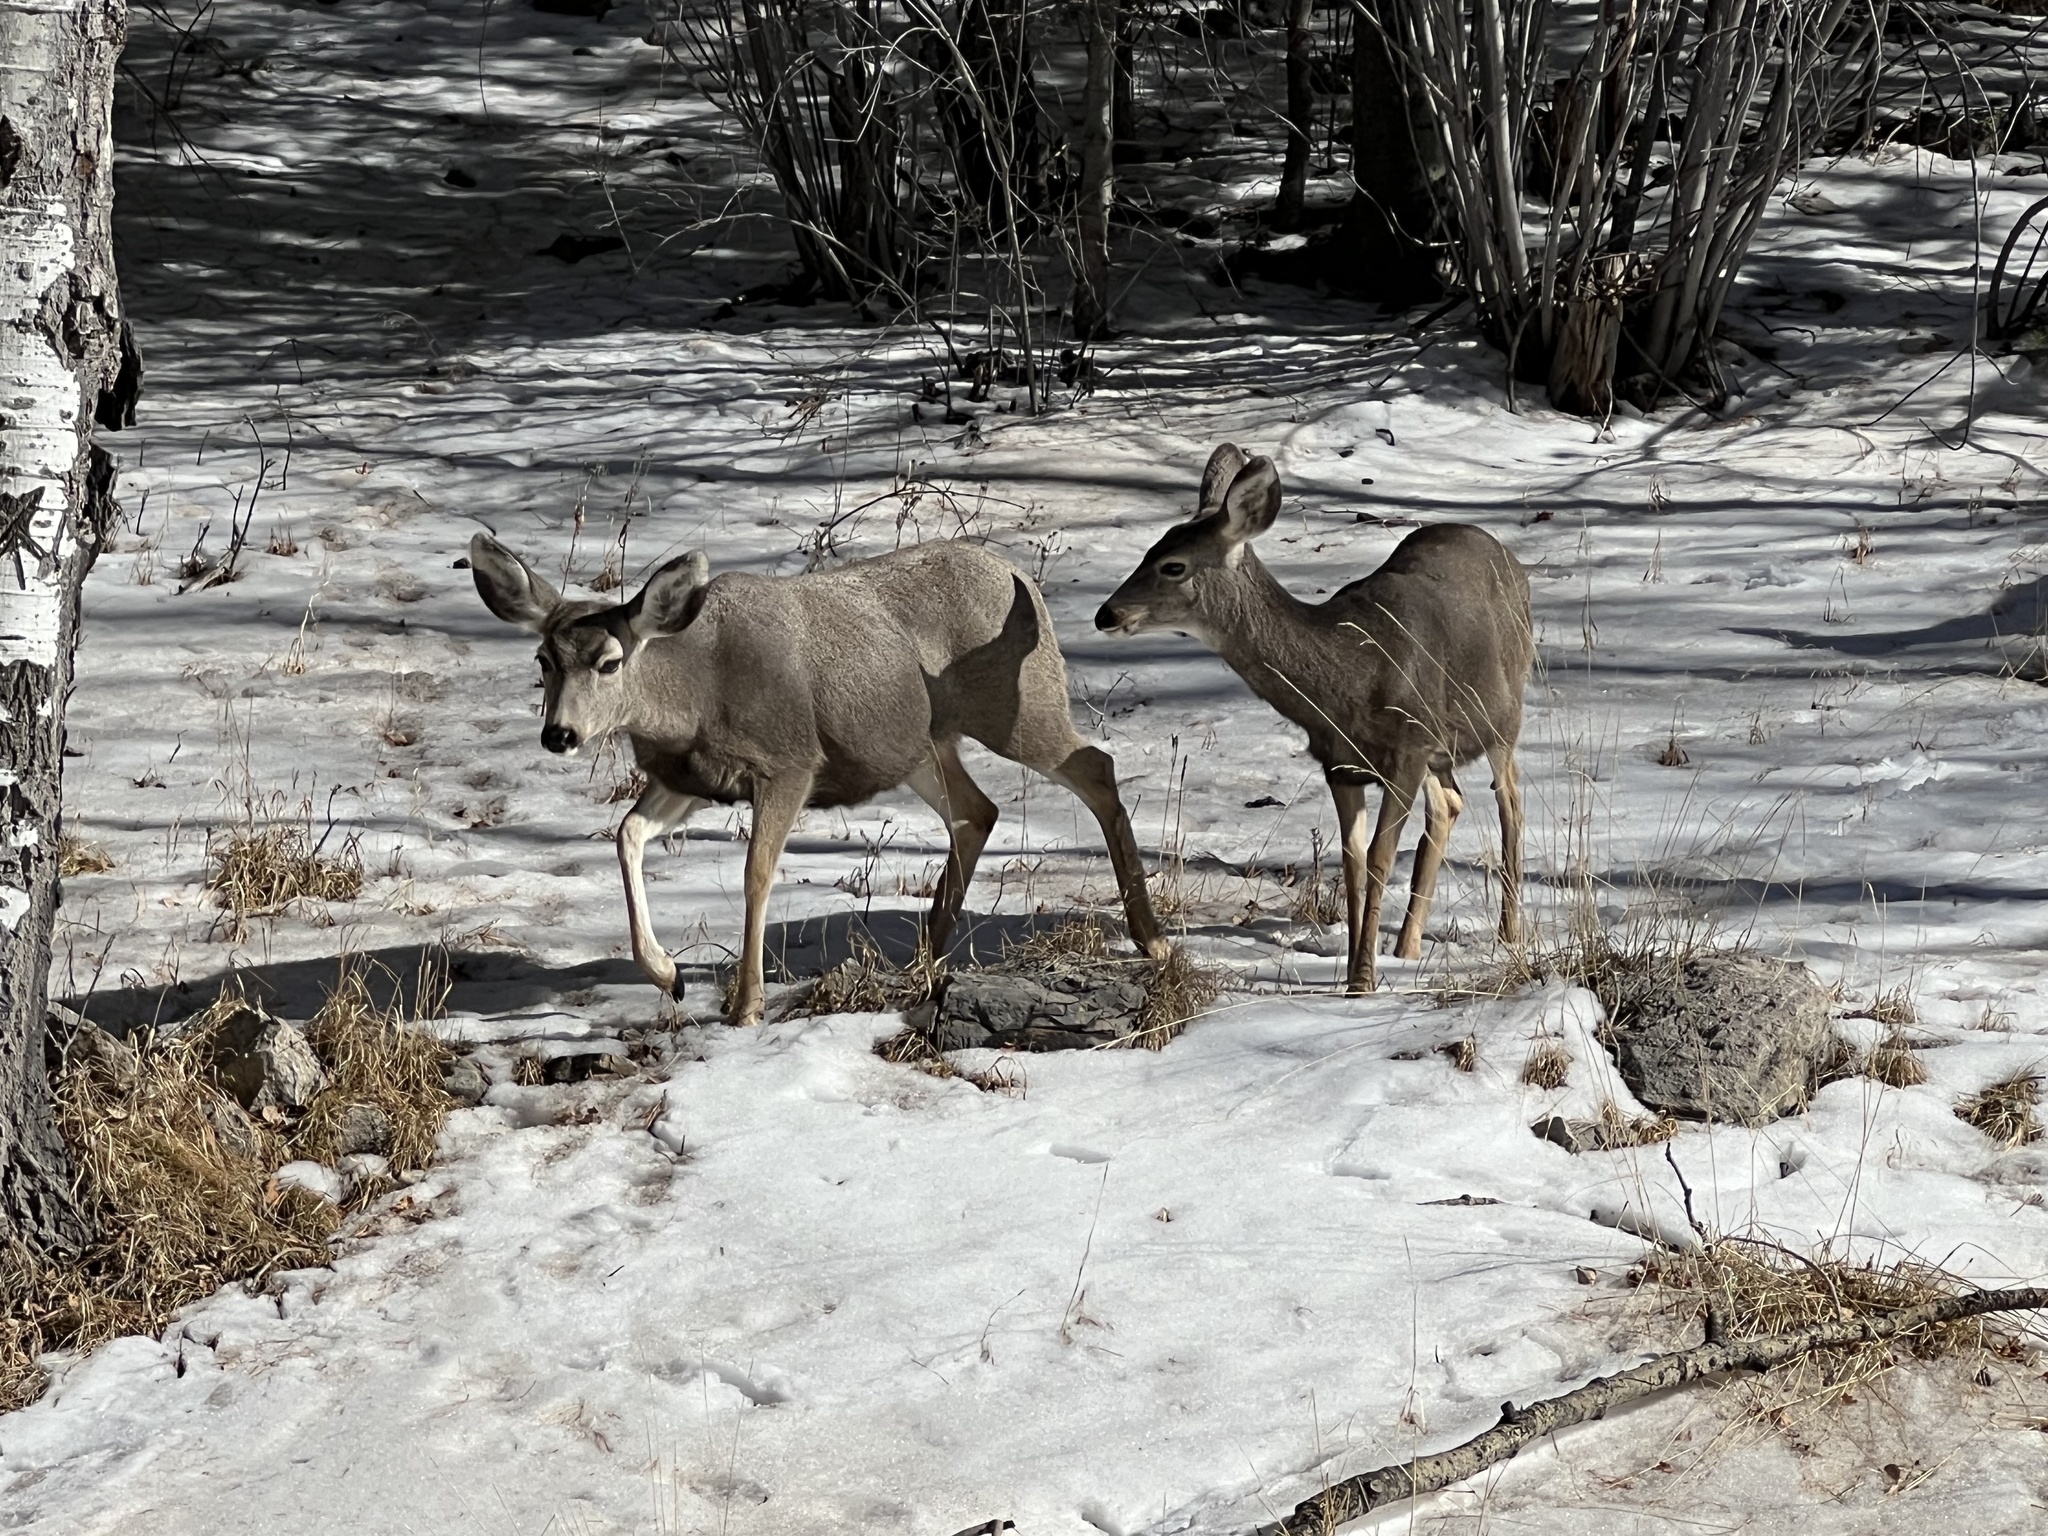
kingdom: Animalia
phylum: Chordata
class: Mammalia
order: Artiodactyla
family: Cervidae
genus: Odocoileus
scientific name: Odocoileus hemionus
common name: Mule deer
